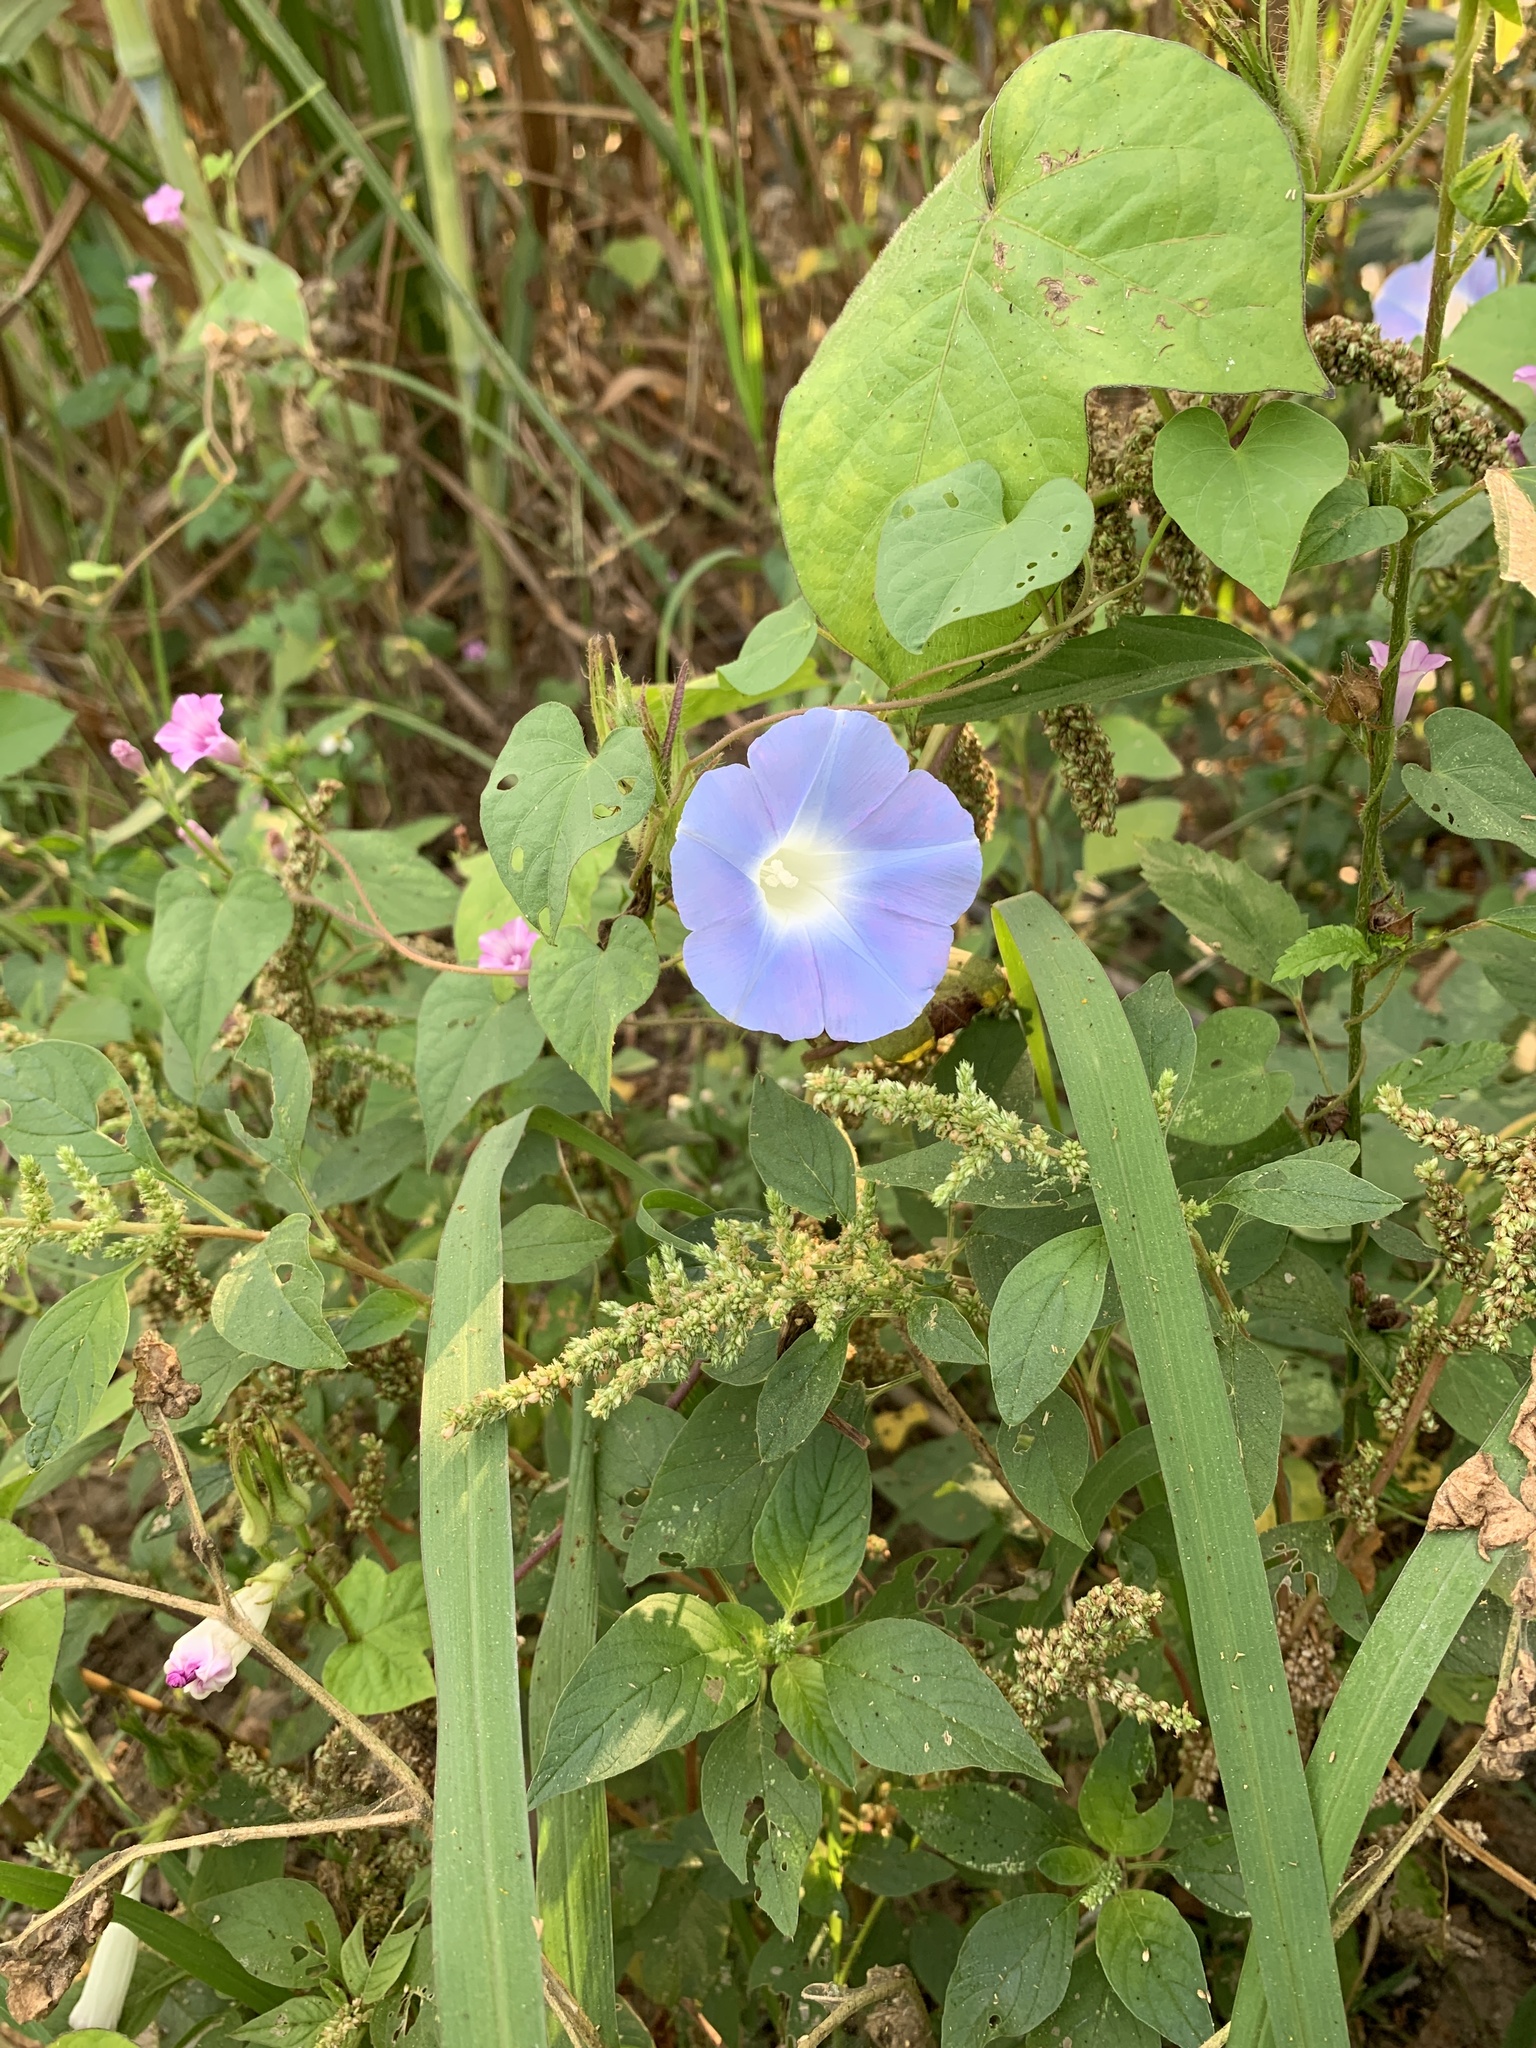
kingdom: Plantae
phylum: Tracheophyta
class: Magnoliopsida
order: Solanales
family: Convolvulaceae
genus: Ipomoea
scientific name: Ipomoea nil
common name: Japanese morning-glory
